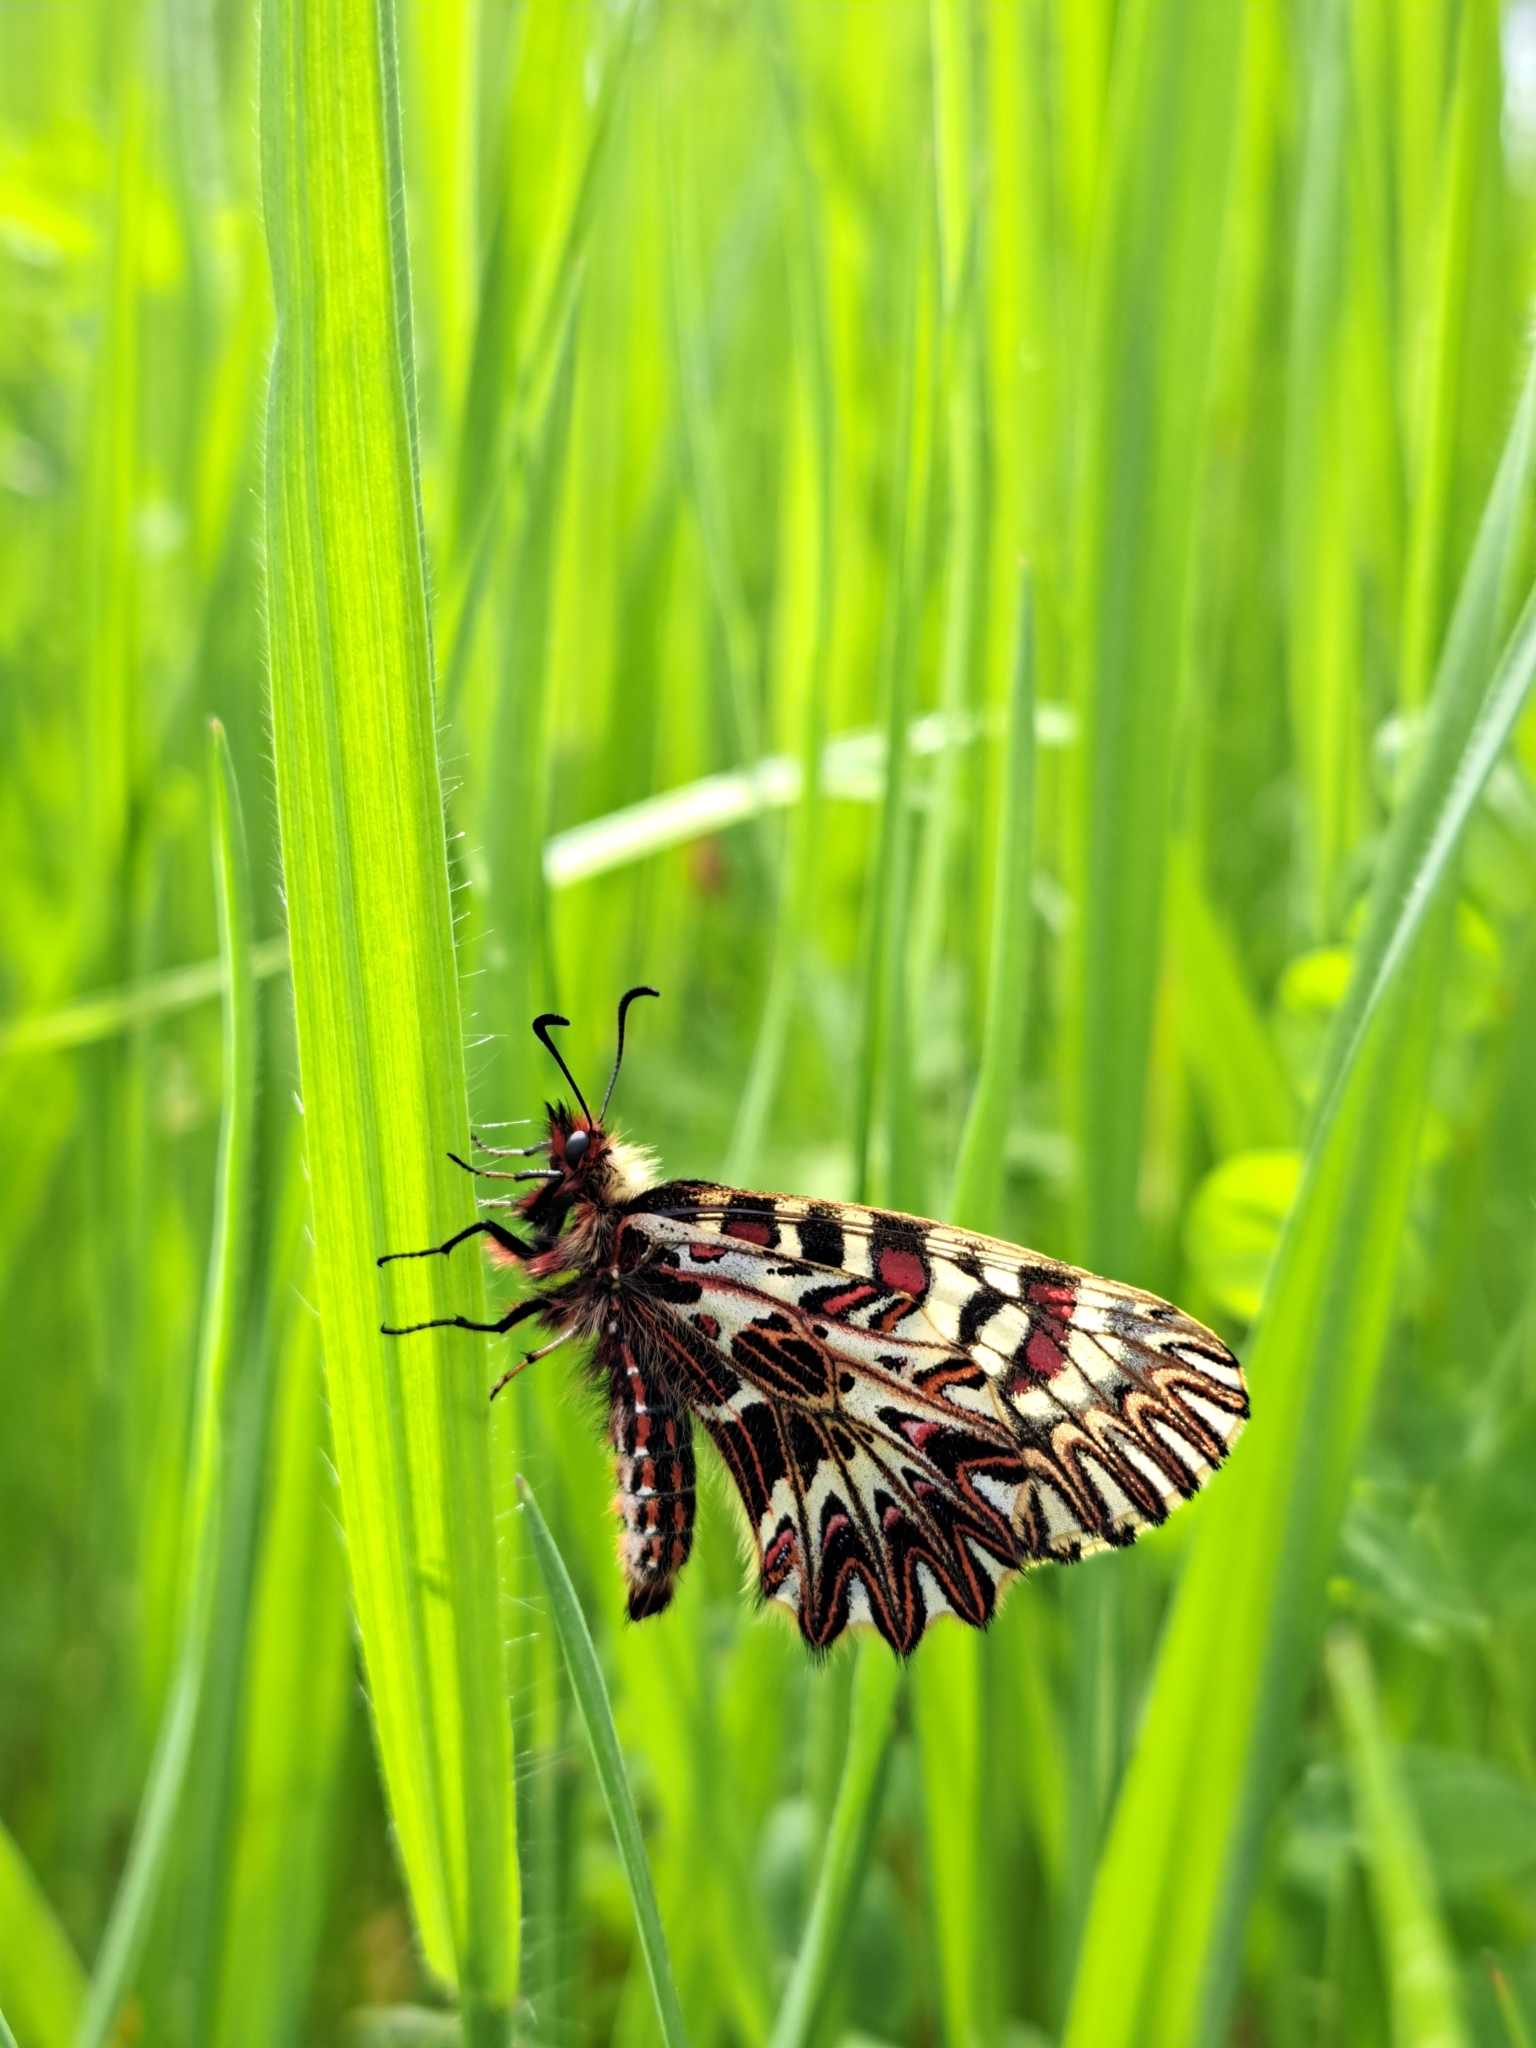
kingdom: Animalia
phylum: Arthropoda
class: Insecta
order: Lepidoptera
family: Papilionidae
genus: Zerynthia
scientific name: Zerynthia cassandra
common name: Italian festoon
